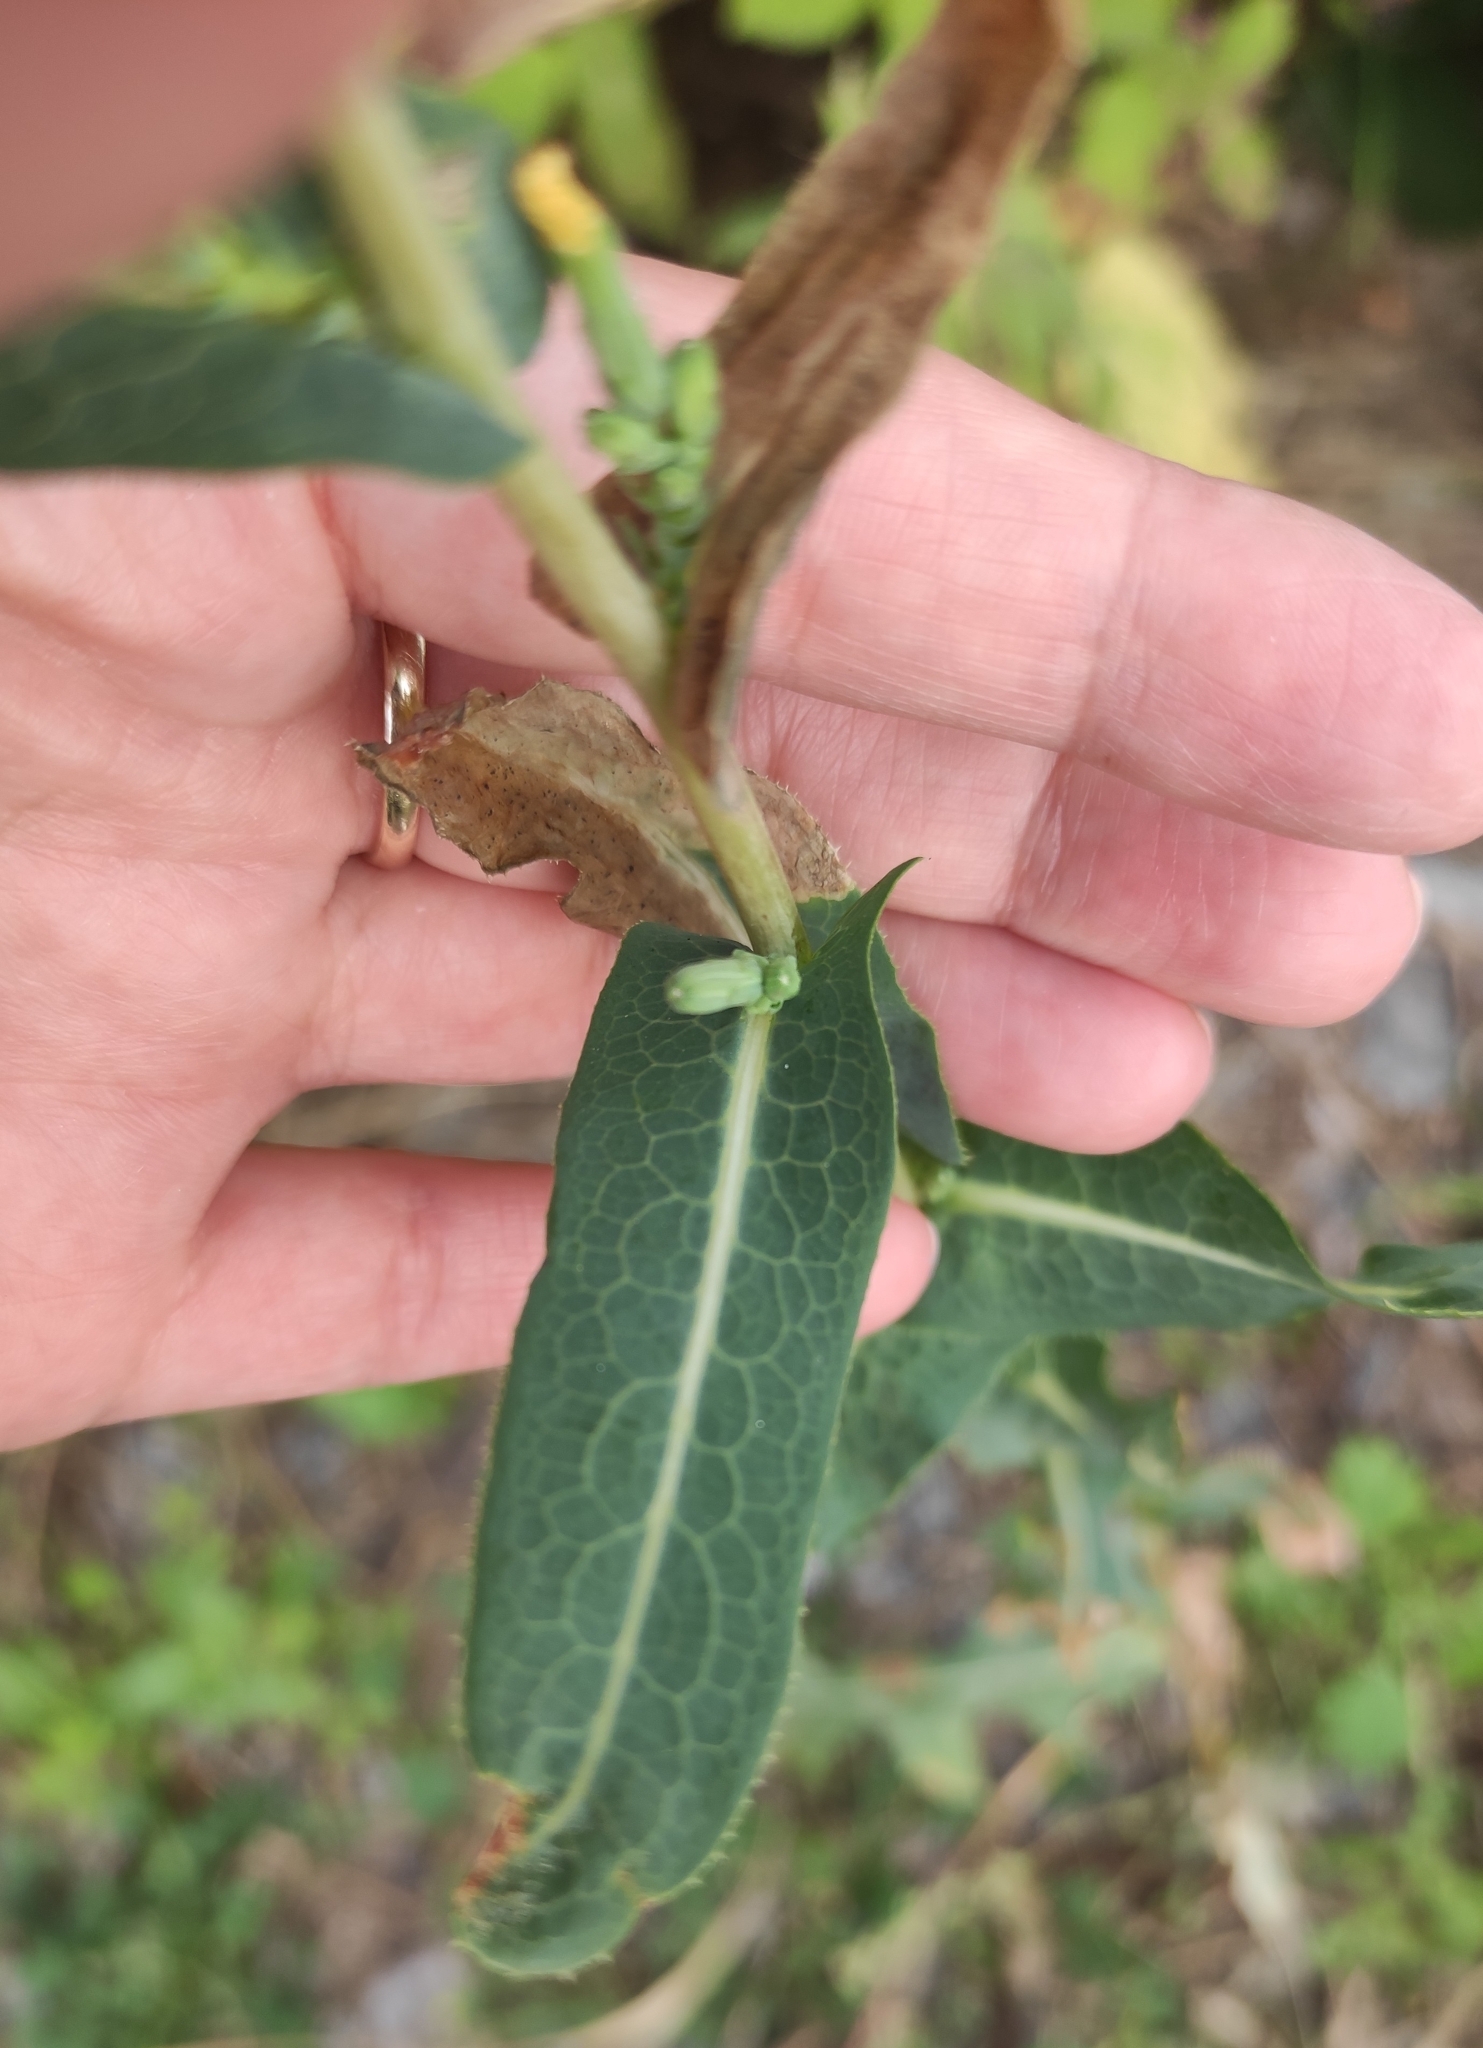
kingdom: Plantae
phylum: Tracheophyta
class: Magnoliopsida
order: Asterales
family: Asteraceae
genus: Lactuca
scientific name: Lactuca serriola
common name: Prickly lettuce
